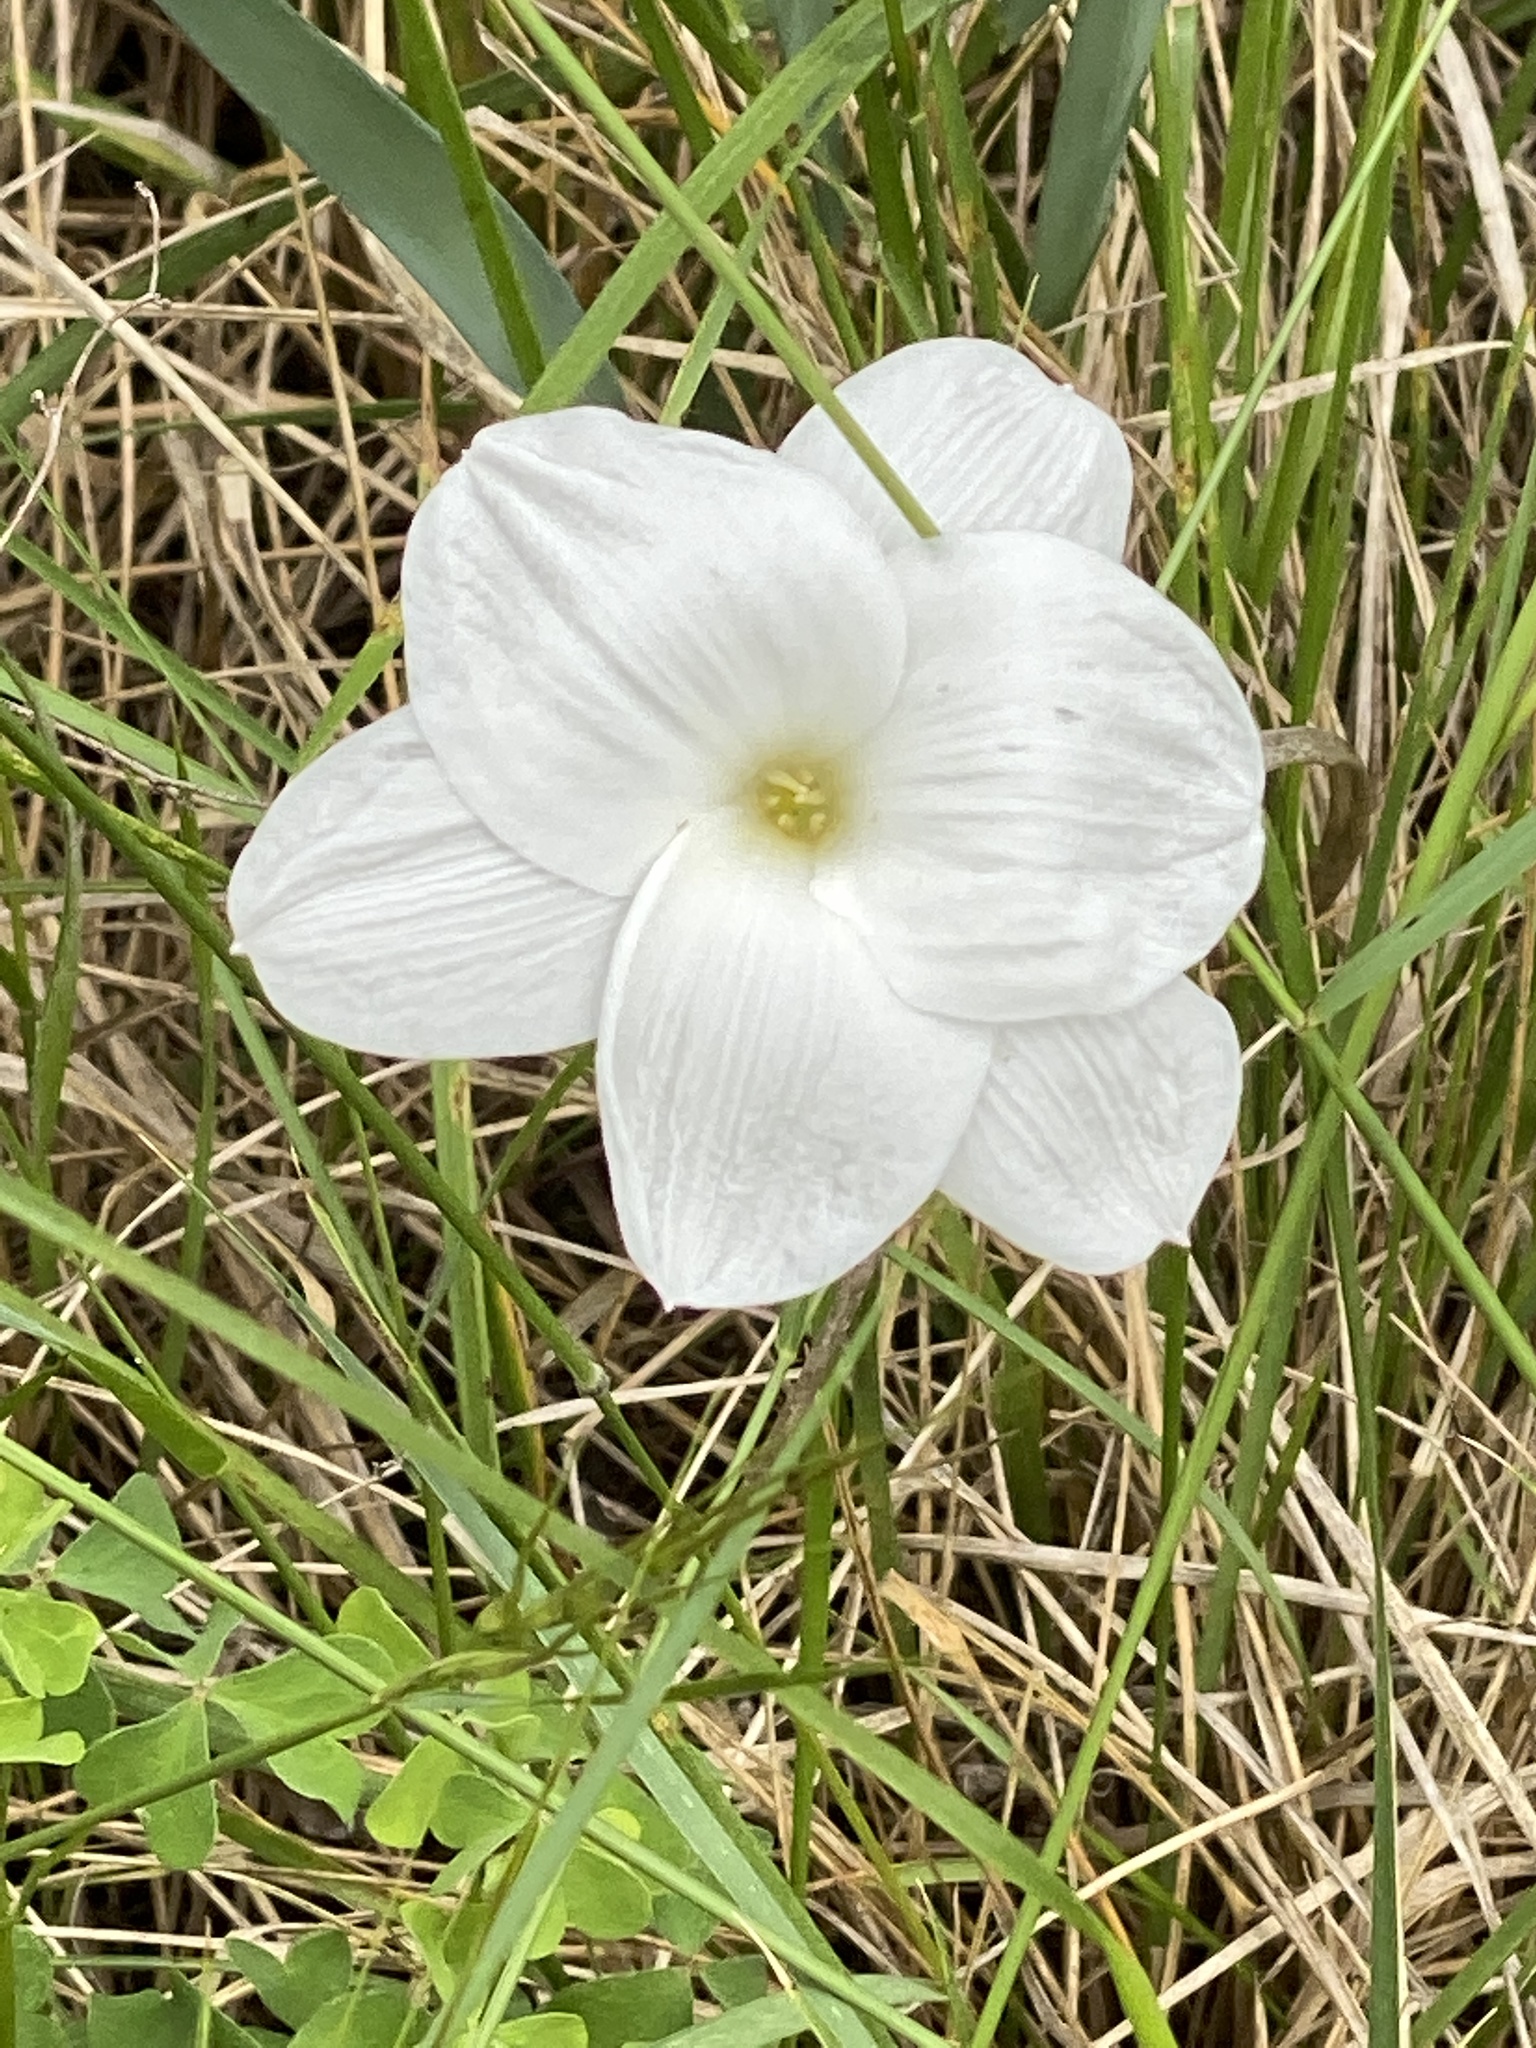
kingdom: Plantae
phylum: Tracheophyta
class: Liliopsida
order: Asparagales
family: Amaryllidaceae
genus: Zephyranthes
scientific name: Zephyranthes drummondii
